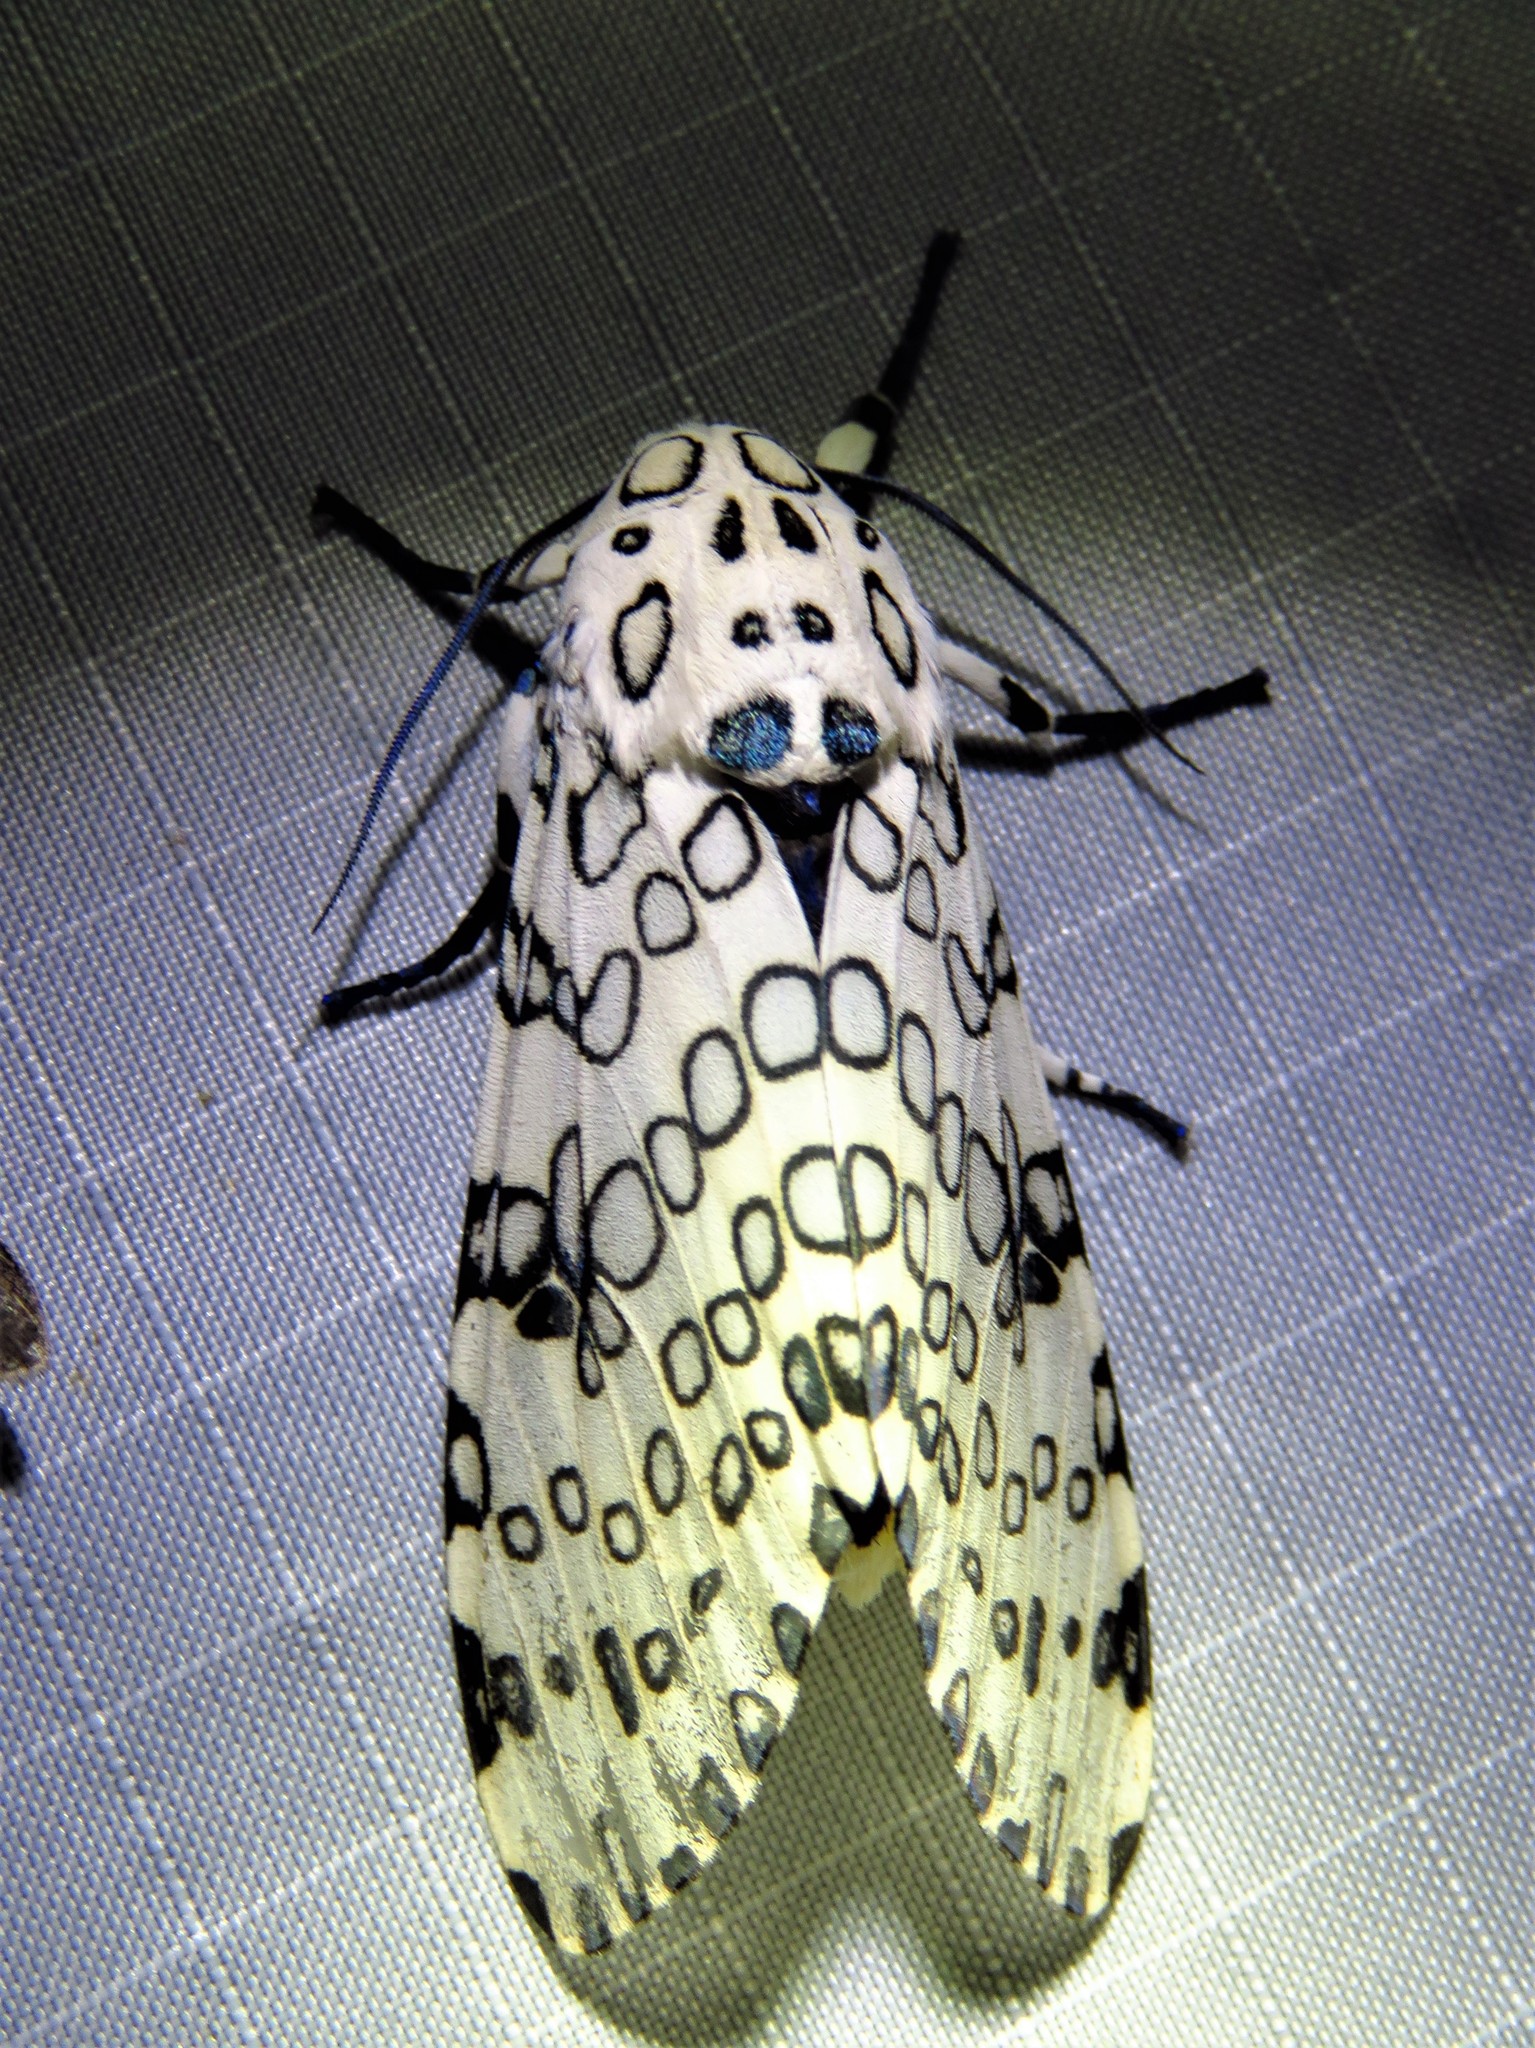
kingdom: Animalia
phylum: Arthropoda
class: Insecta
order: Lepidoptera
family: Erebidae
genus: Hypercompe
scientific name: Hypercompe scribonia
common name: Giant leopard moth
